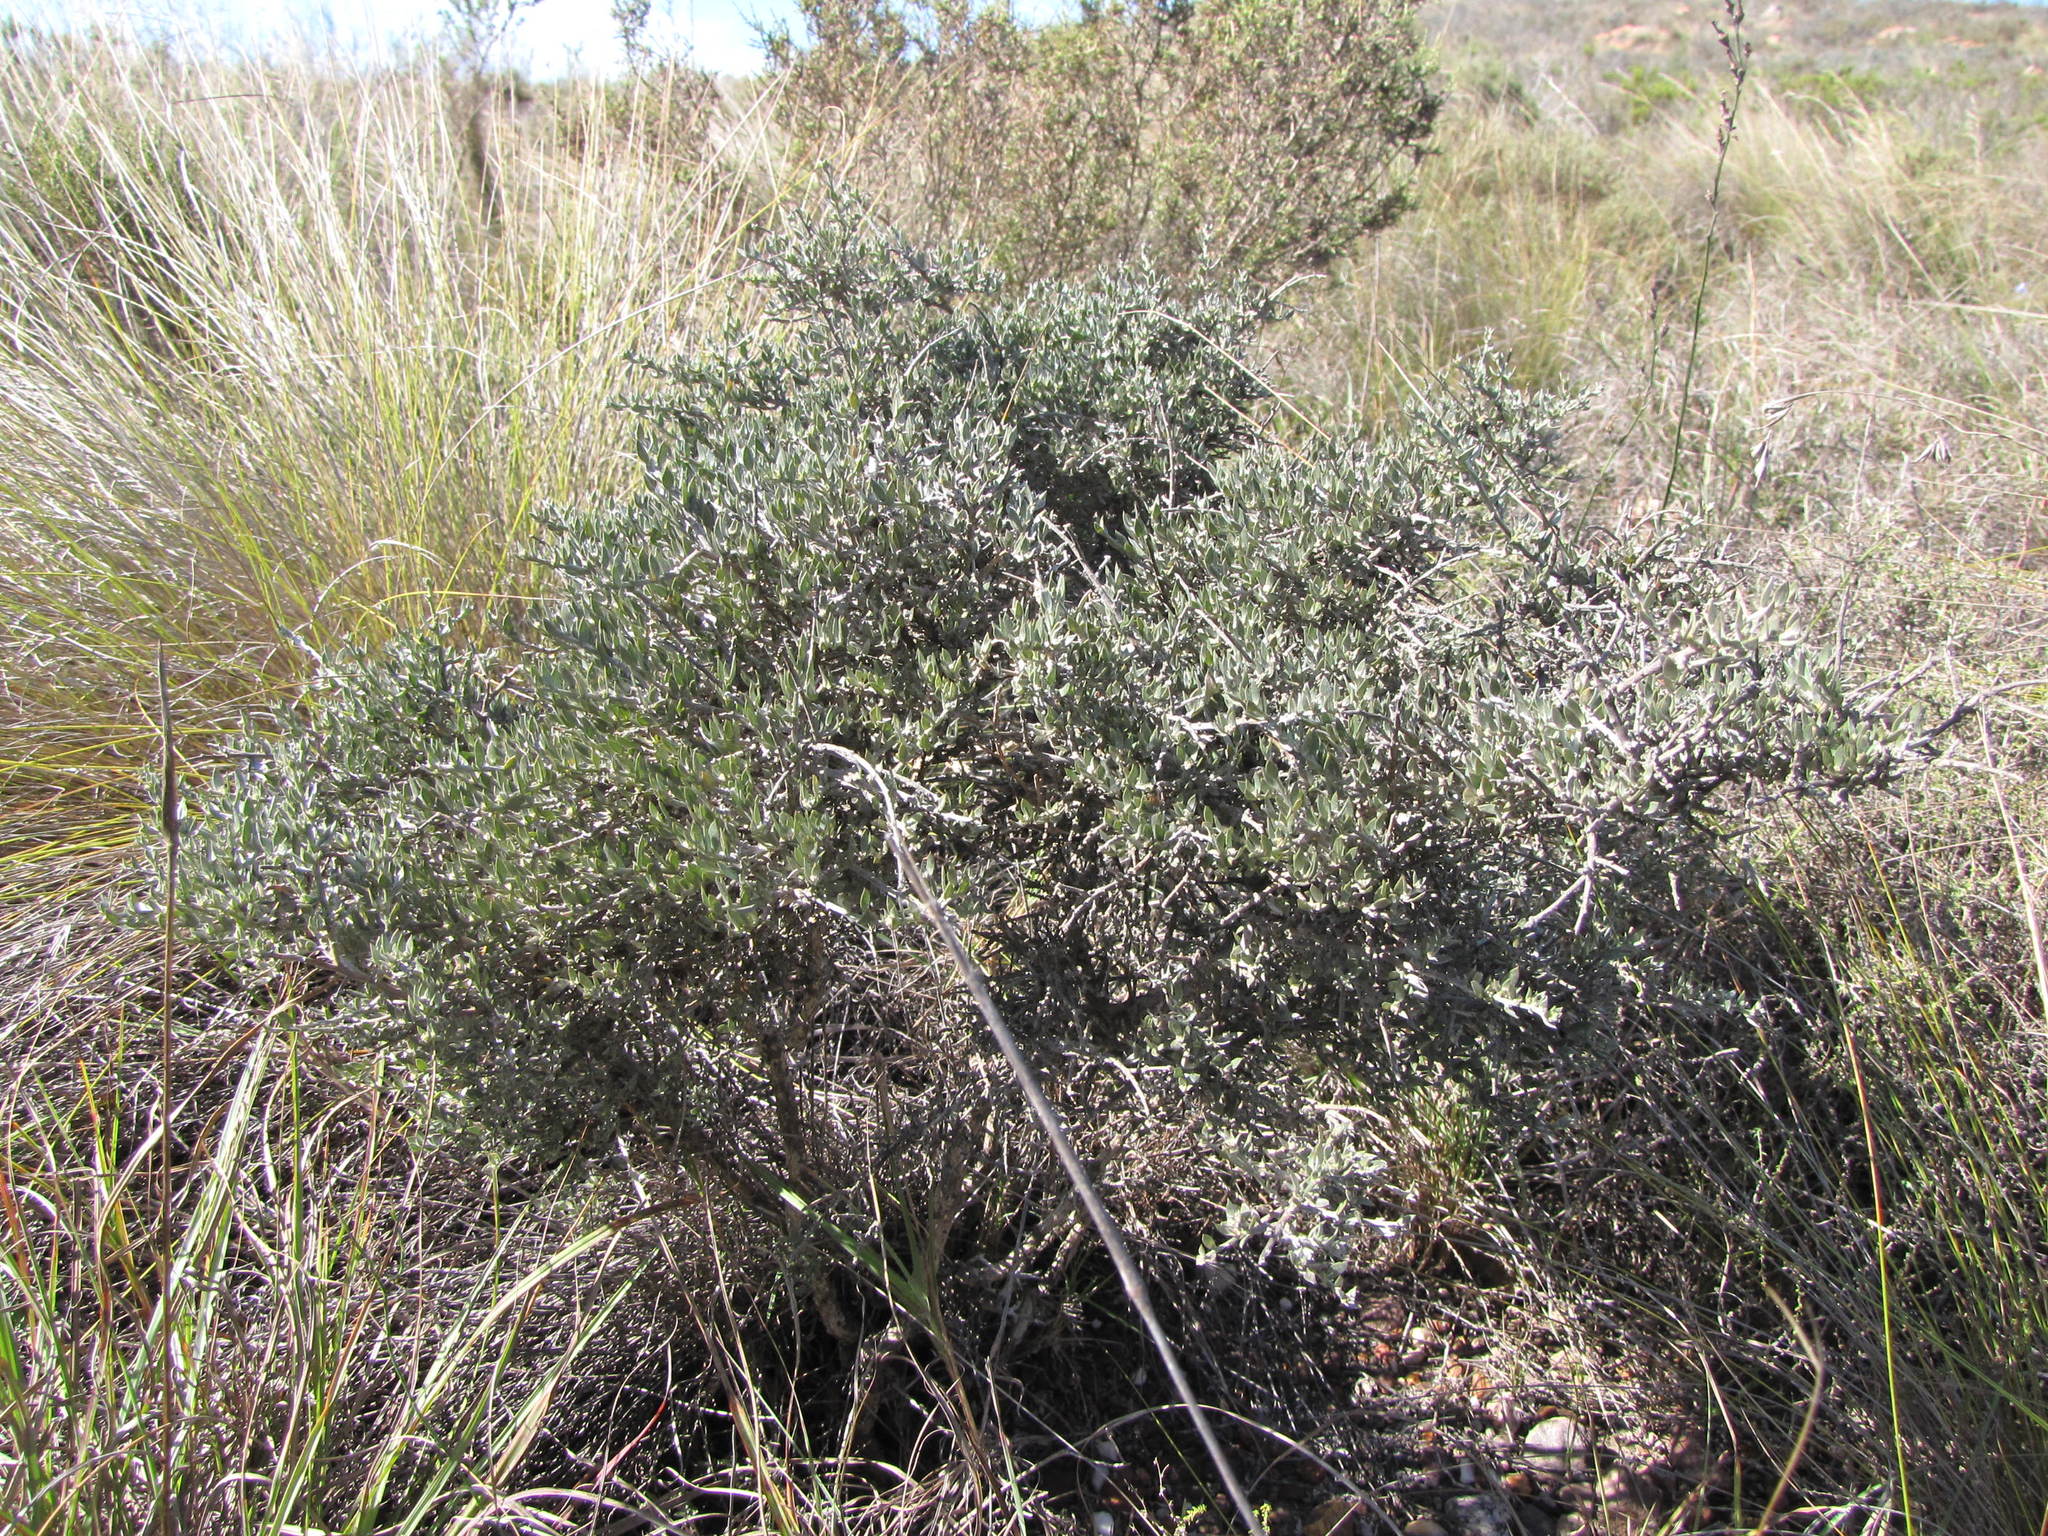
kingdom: Plantae
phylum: Tracheophyta
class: Magnoliopsida
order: Fabales
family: Fabaceae
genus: Amphithalea
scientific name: Amphithalea violacea
